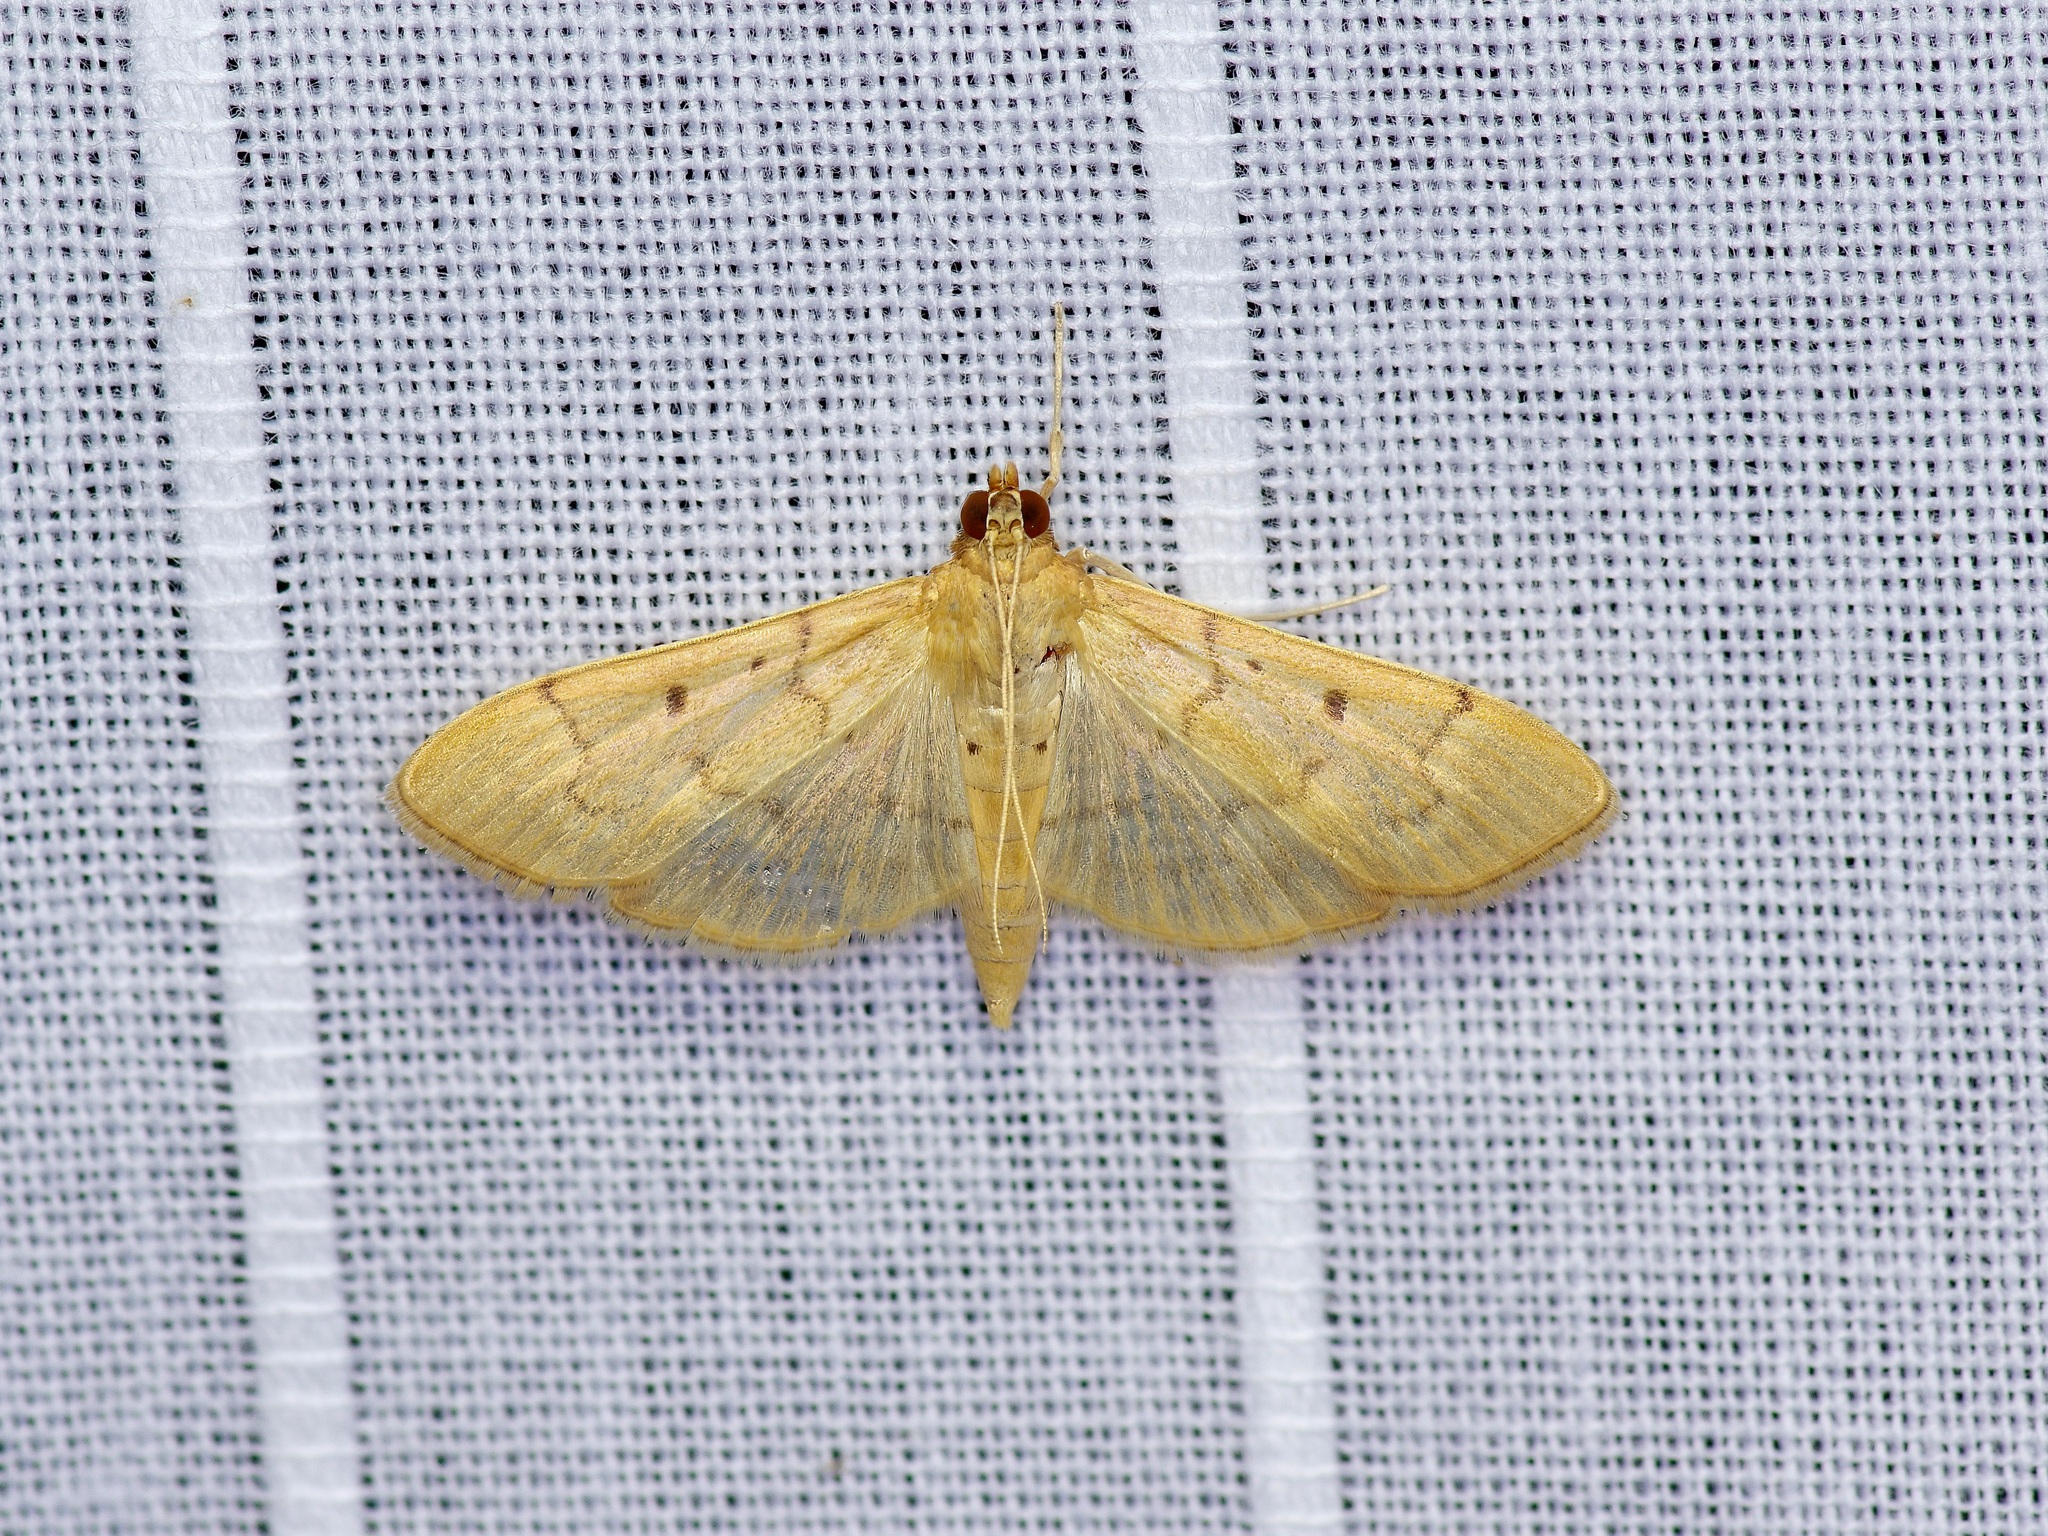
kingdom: Animalia
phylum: Arthropoda
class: Insecta
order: Lepidoptera
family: Crambidae
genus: Herpetogramma
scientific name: Herpetogramma bipunctalis
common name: Southern beet webworm
